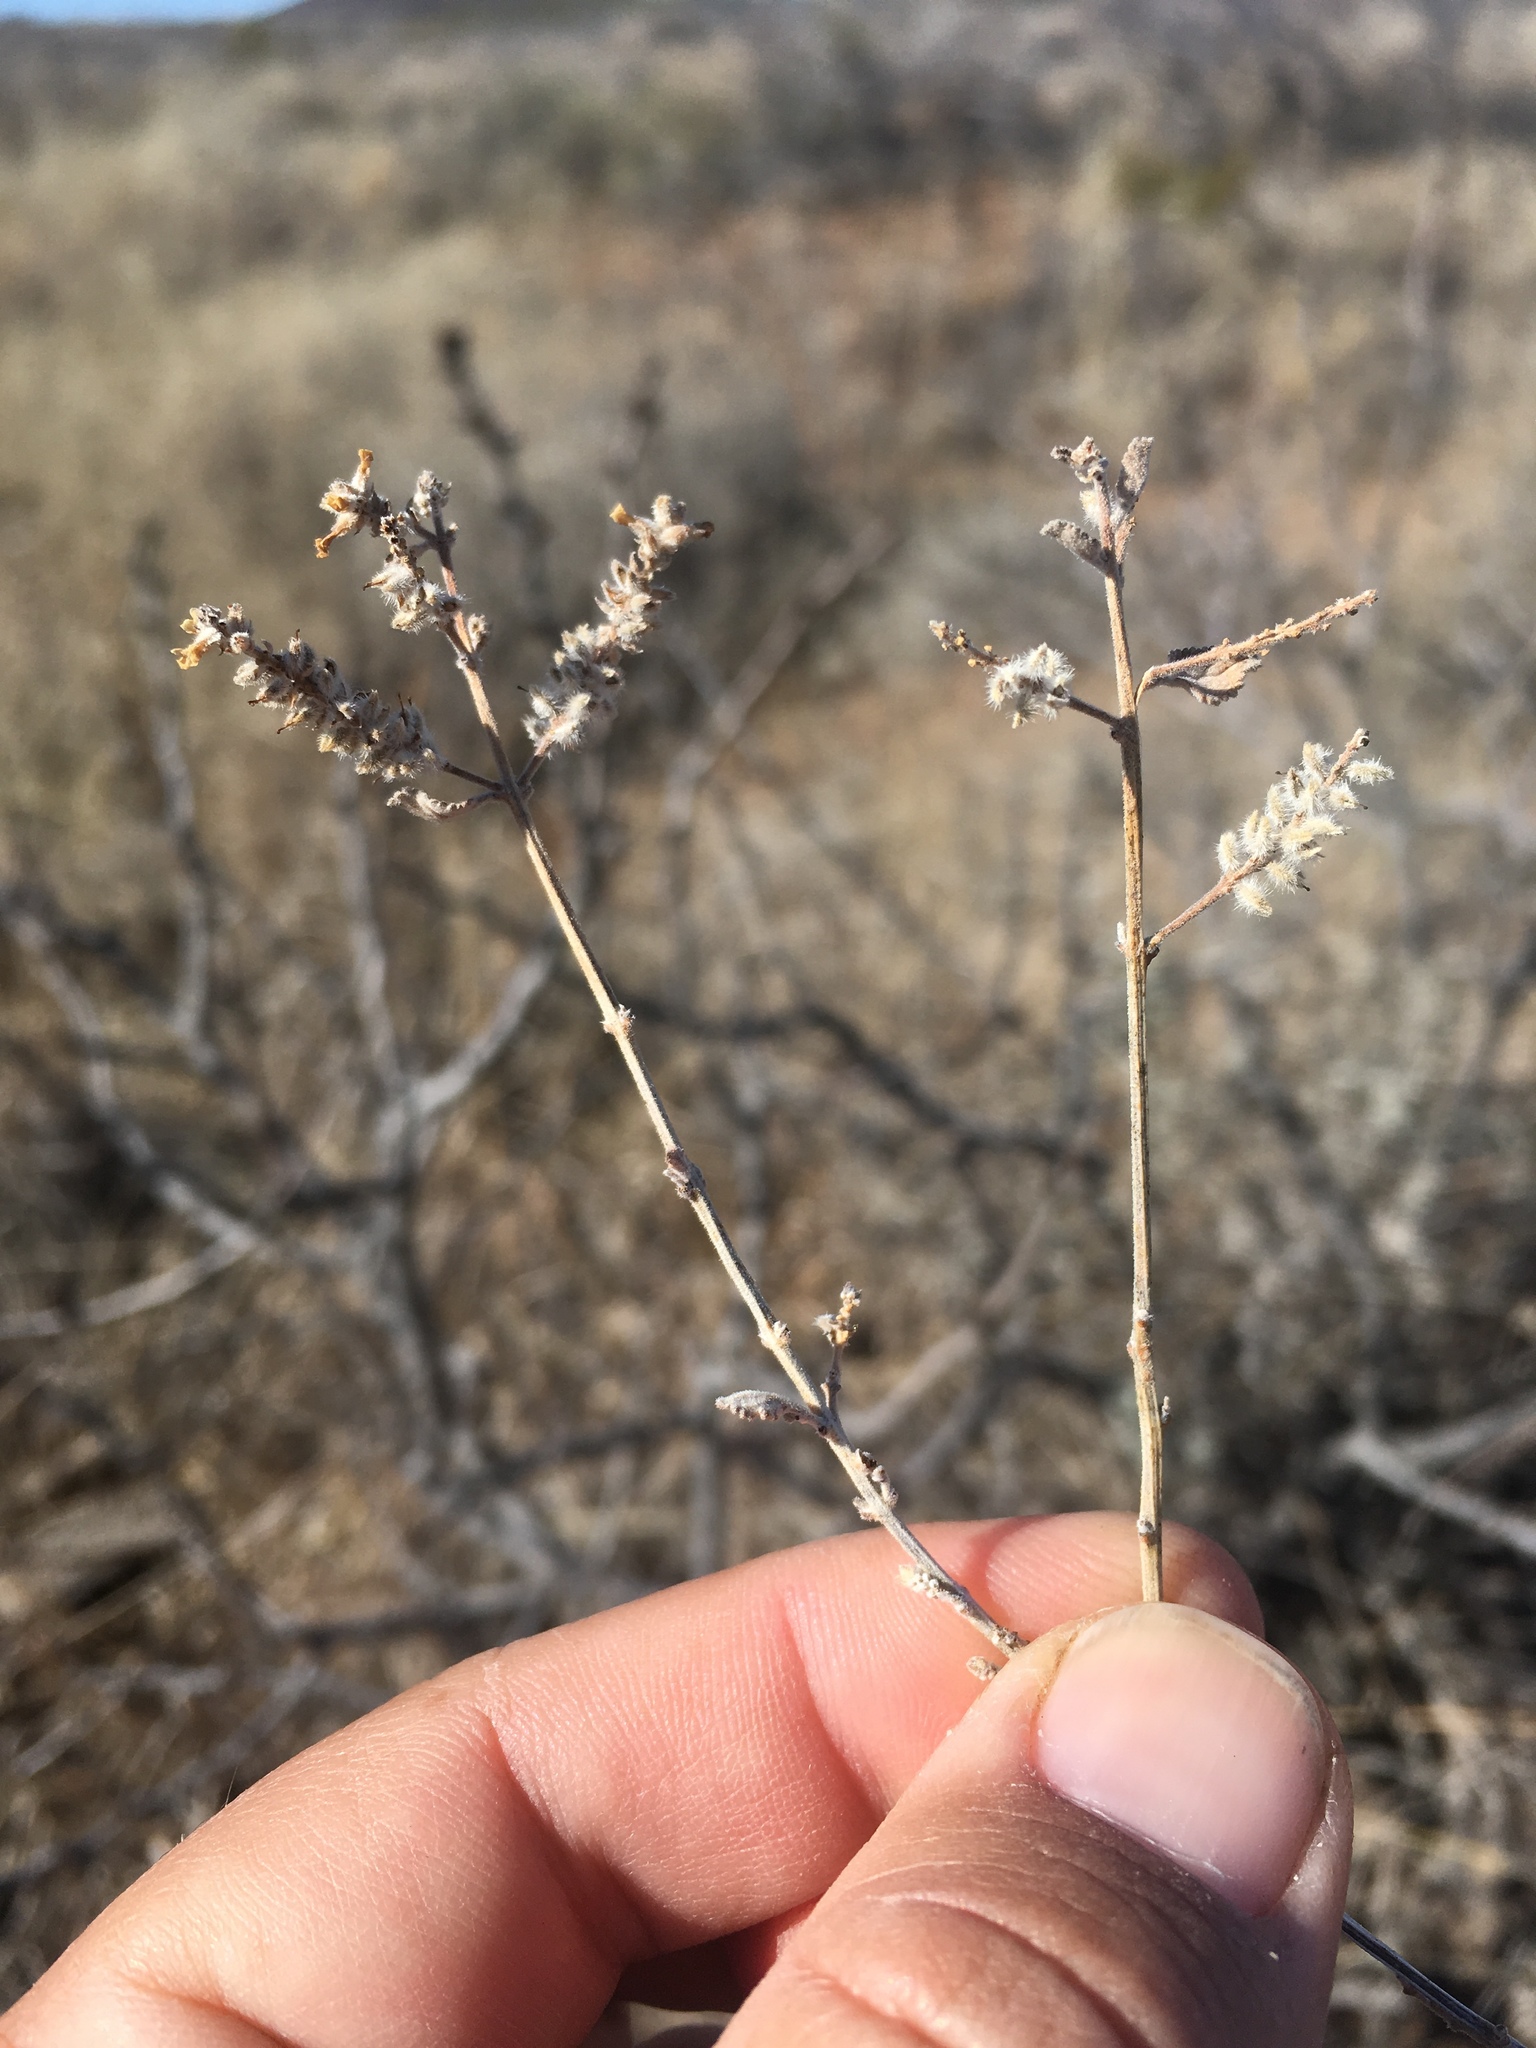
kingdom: Plantae
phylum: Tracheophyta
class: Magnoliopsida
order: Lamiales
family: Verbenaceae
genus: Aloysia
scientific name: Aloysia wrightii
